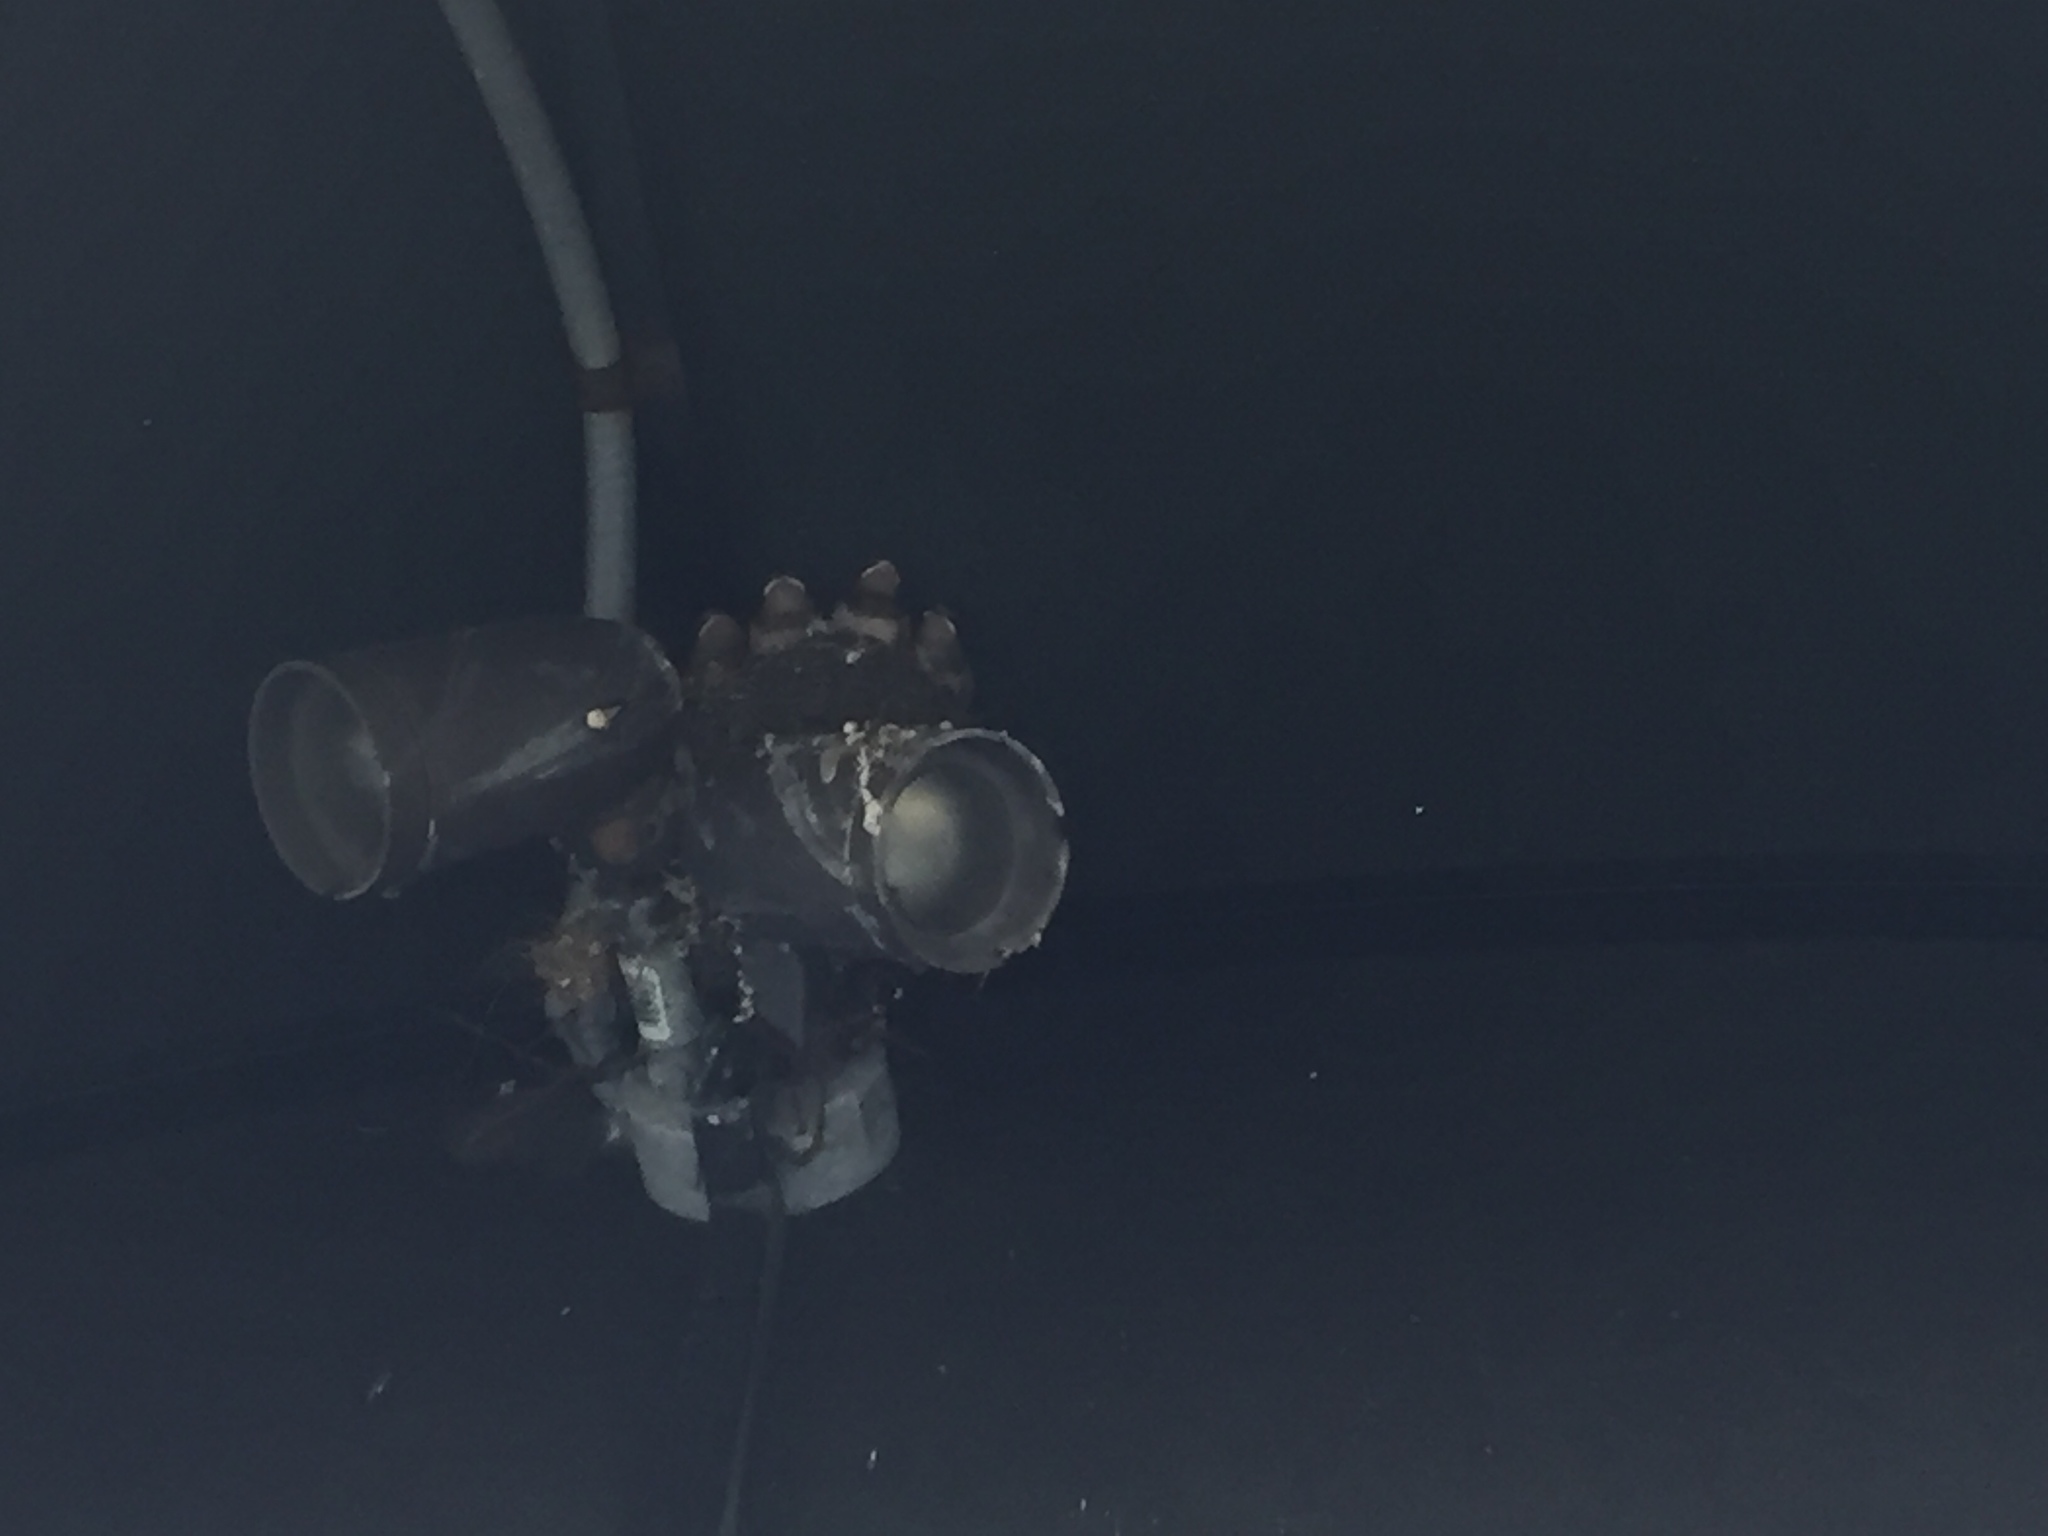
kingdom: Animalia
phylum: Chordata
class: Aves
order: Passeriformes
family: Hirundinidae
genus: Hirundo
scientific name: Hirundo rustica
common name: Barn swallow
